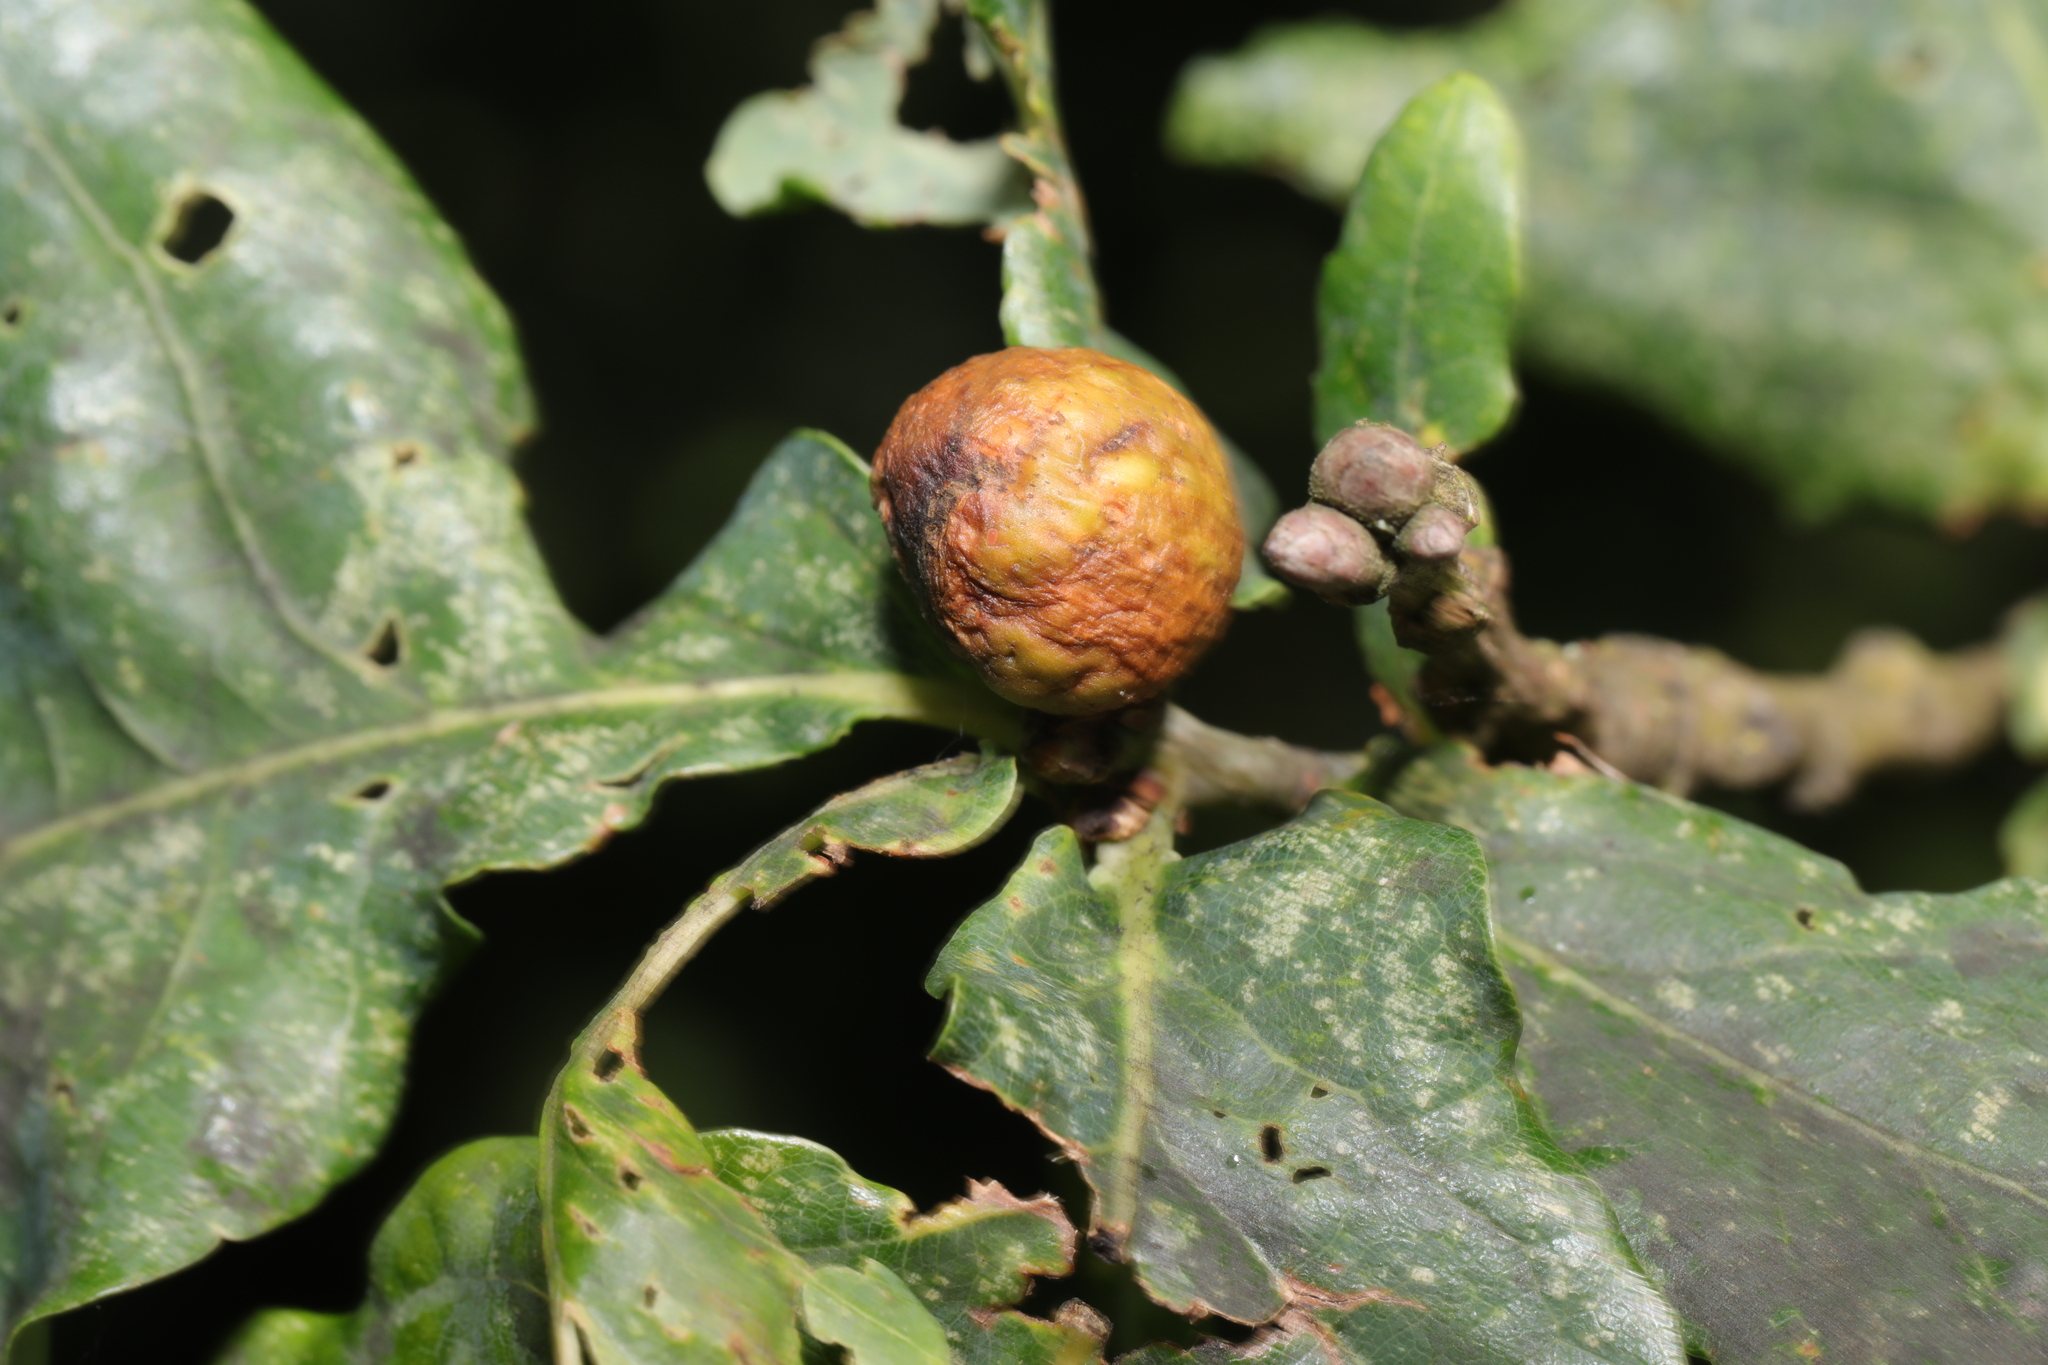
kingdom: Animalia
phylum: Arthropoda
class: Insecta
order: Hymenoptera
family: Cynipidae
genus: Andricus
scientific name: Andricus kollari
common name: Marble gall
